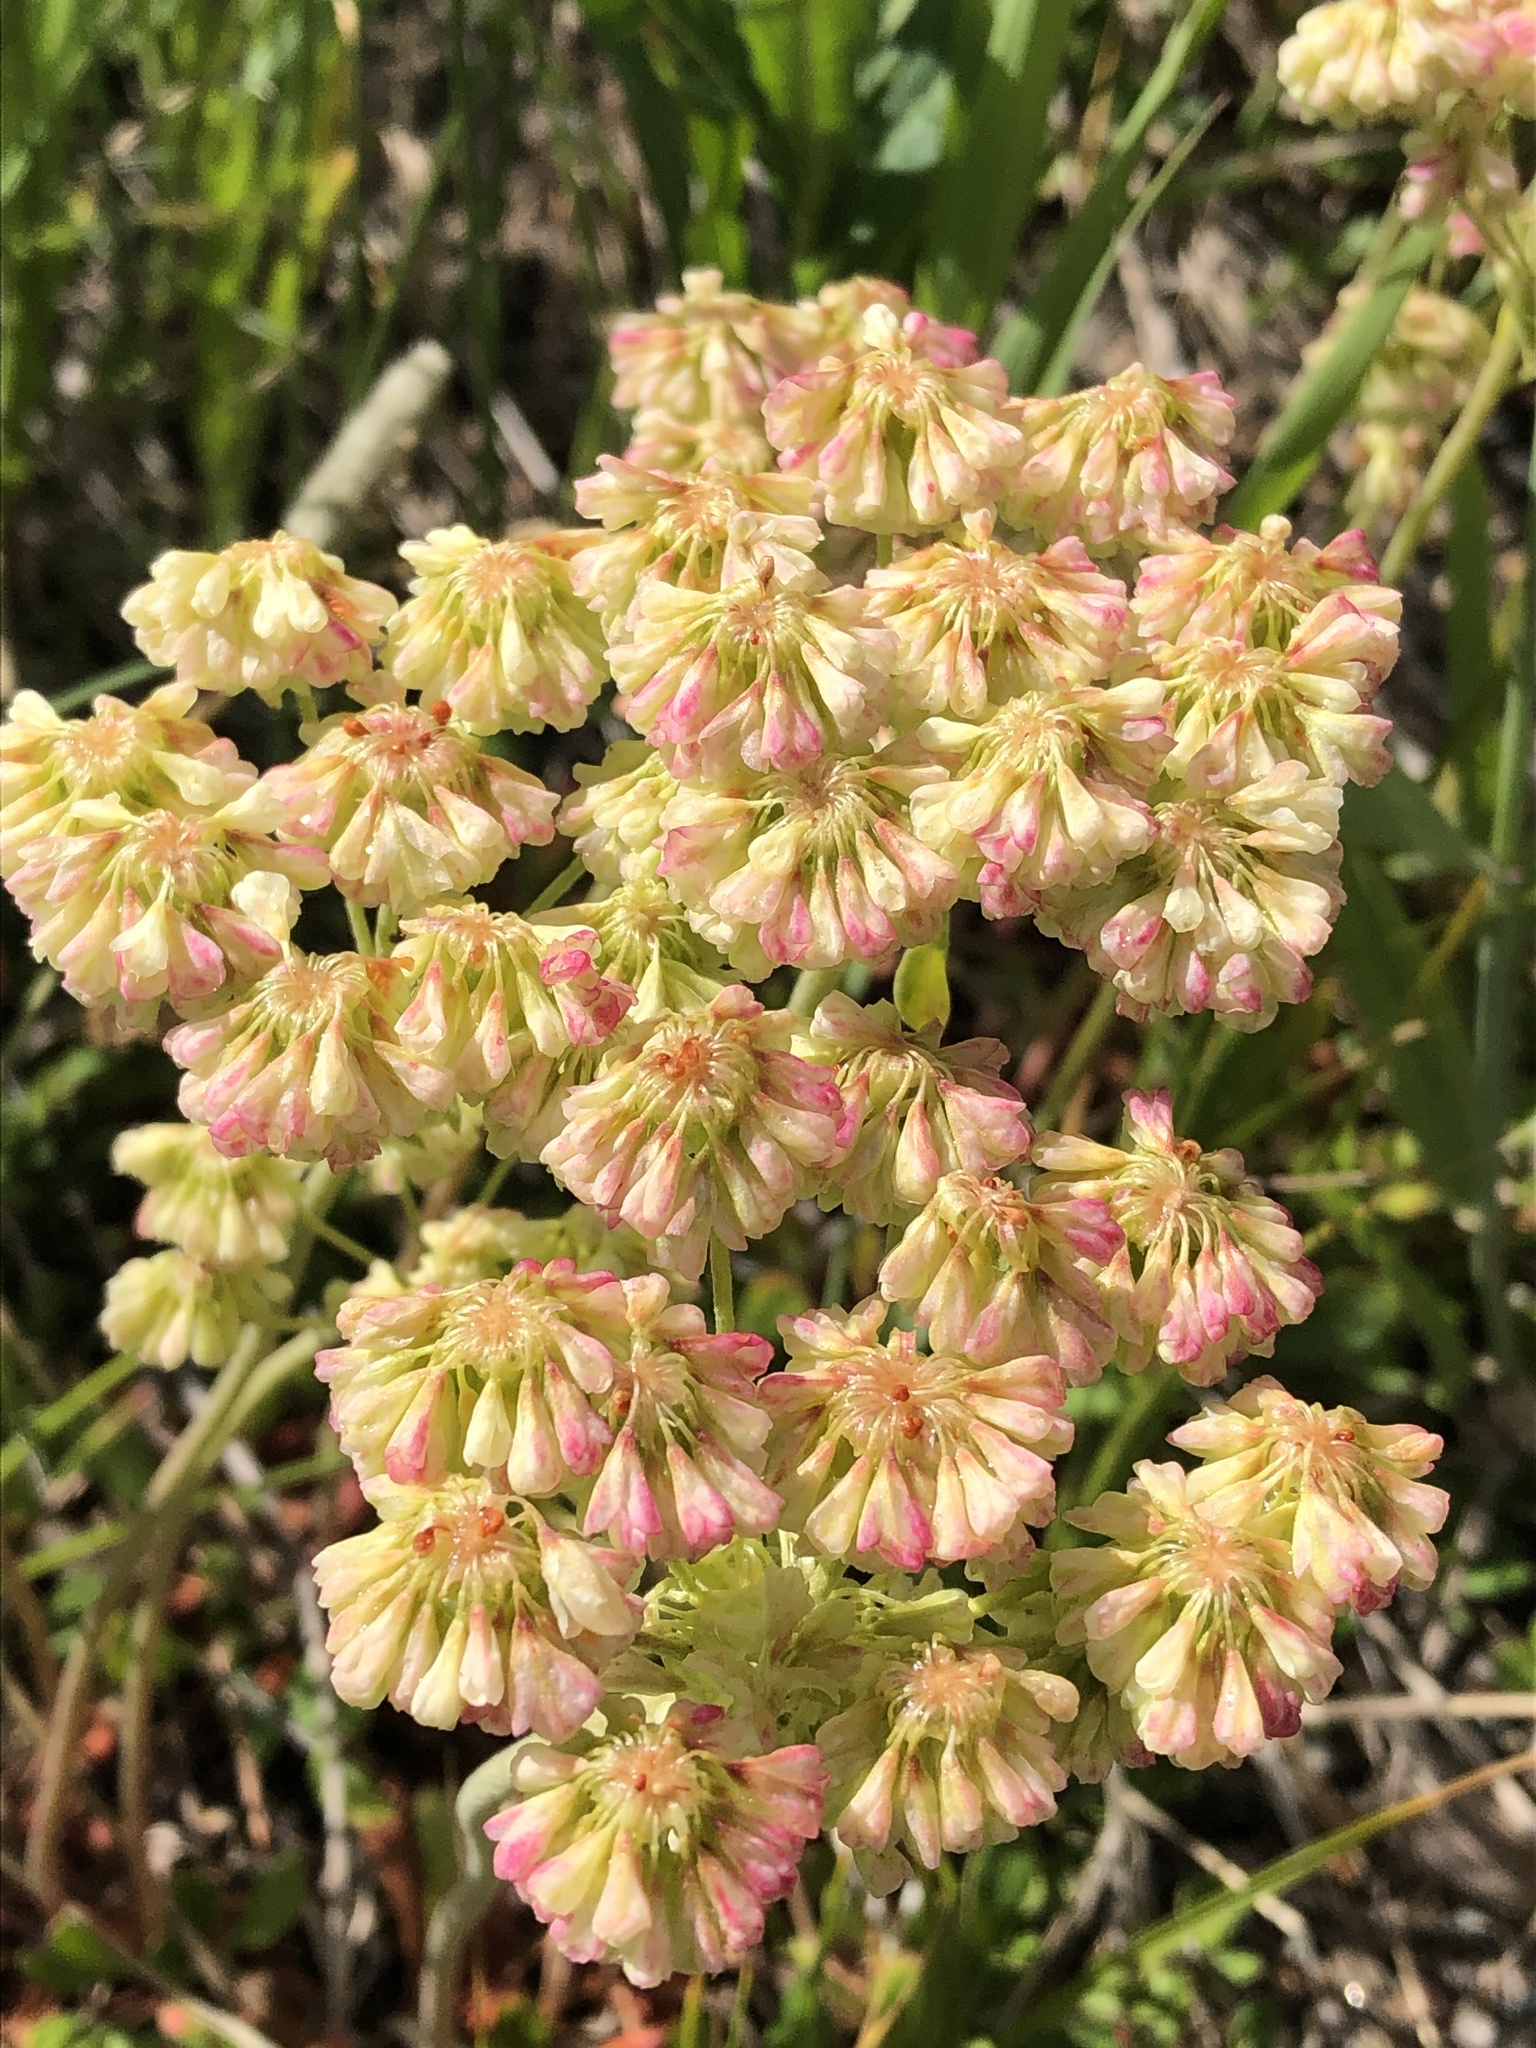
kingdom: Plantae
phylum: Tracheophyta
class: Magnoliopsida
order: Caryophyllales
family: Polygonaceae
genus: Eriogonum
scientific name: Eriogonum umbellatum
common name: Sulfur-buckwheat
